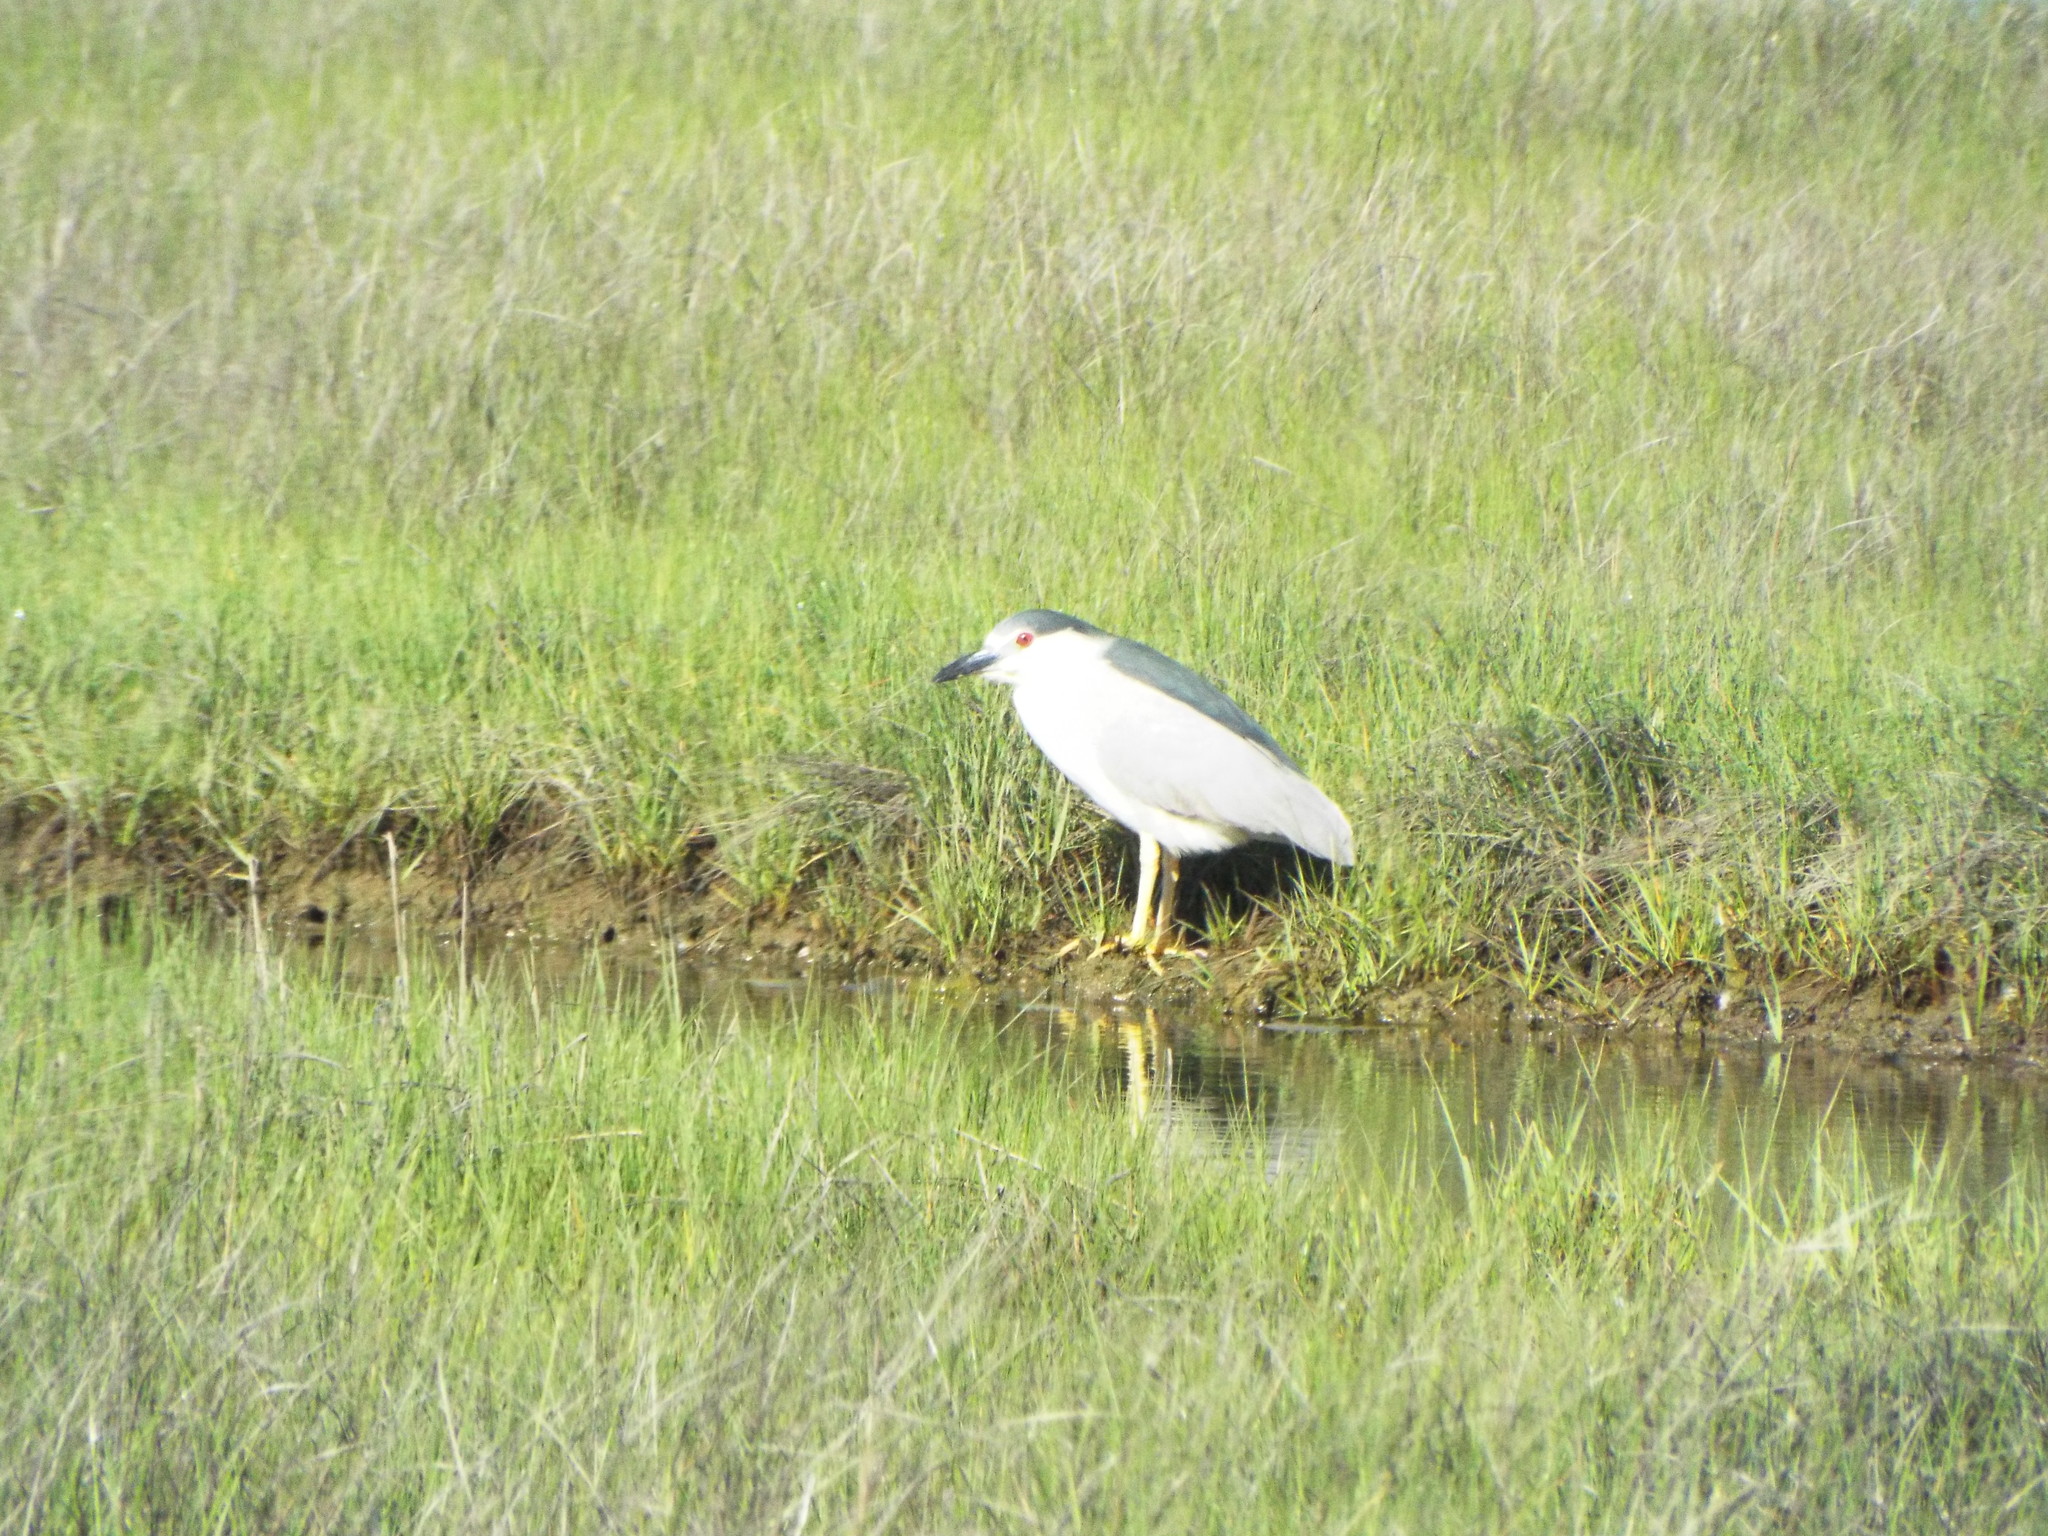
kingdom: Animalia
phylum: Chordata
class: Aves
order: Pelecaniformes
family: Ardeidae
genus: Nycticorax
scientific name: Nycticorax nycticorax
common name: Black-crowned night heron
